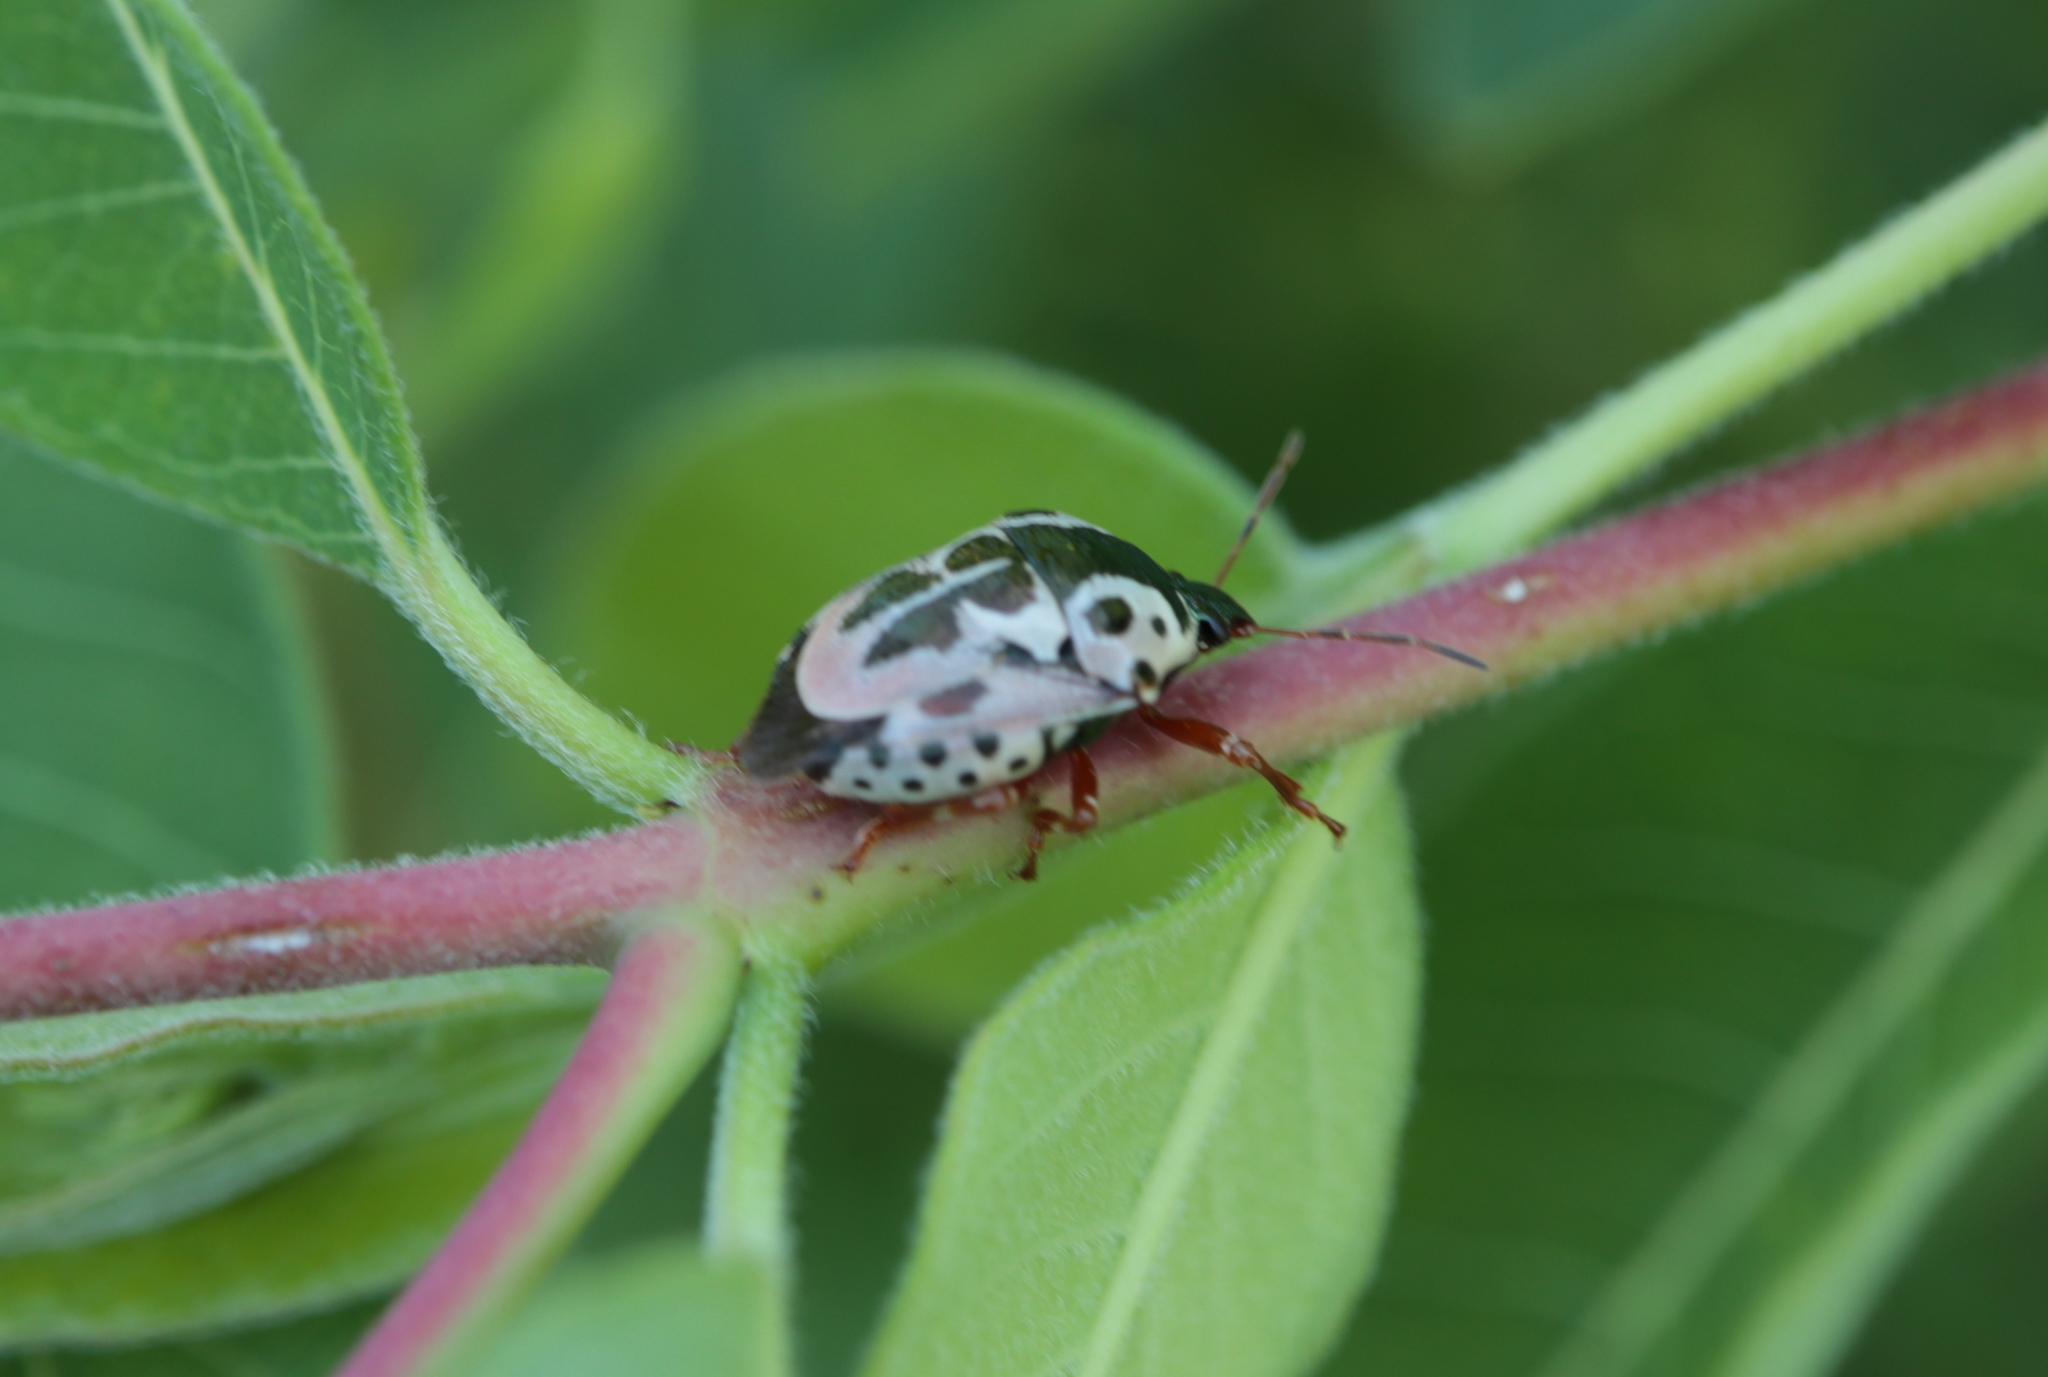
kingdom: Animalia
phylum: Arthropoda
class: Insecta
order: Hemiptera
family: Pentatomidae
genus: Stiretrus
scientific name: Stiretrus anchorago
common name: Anchor stink bug
